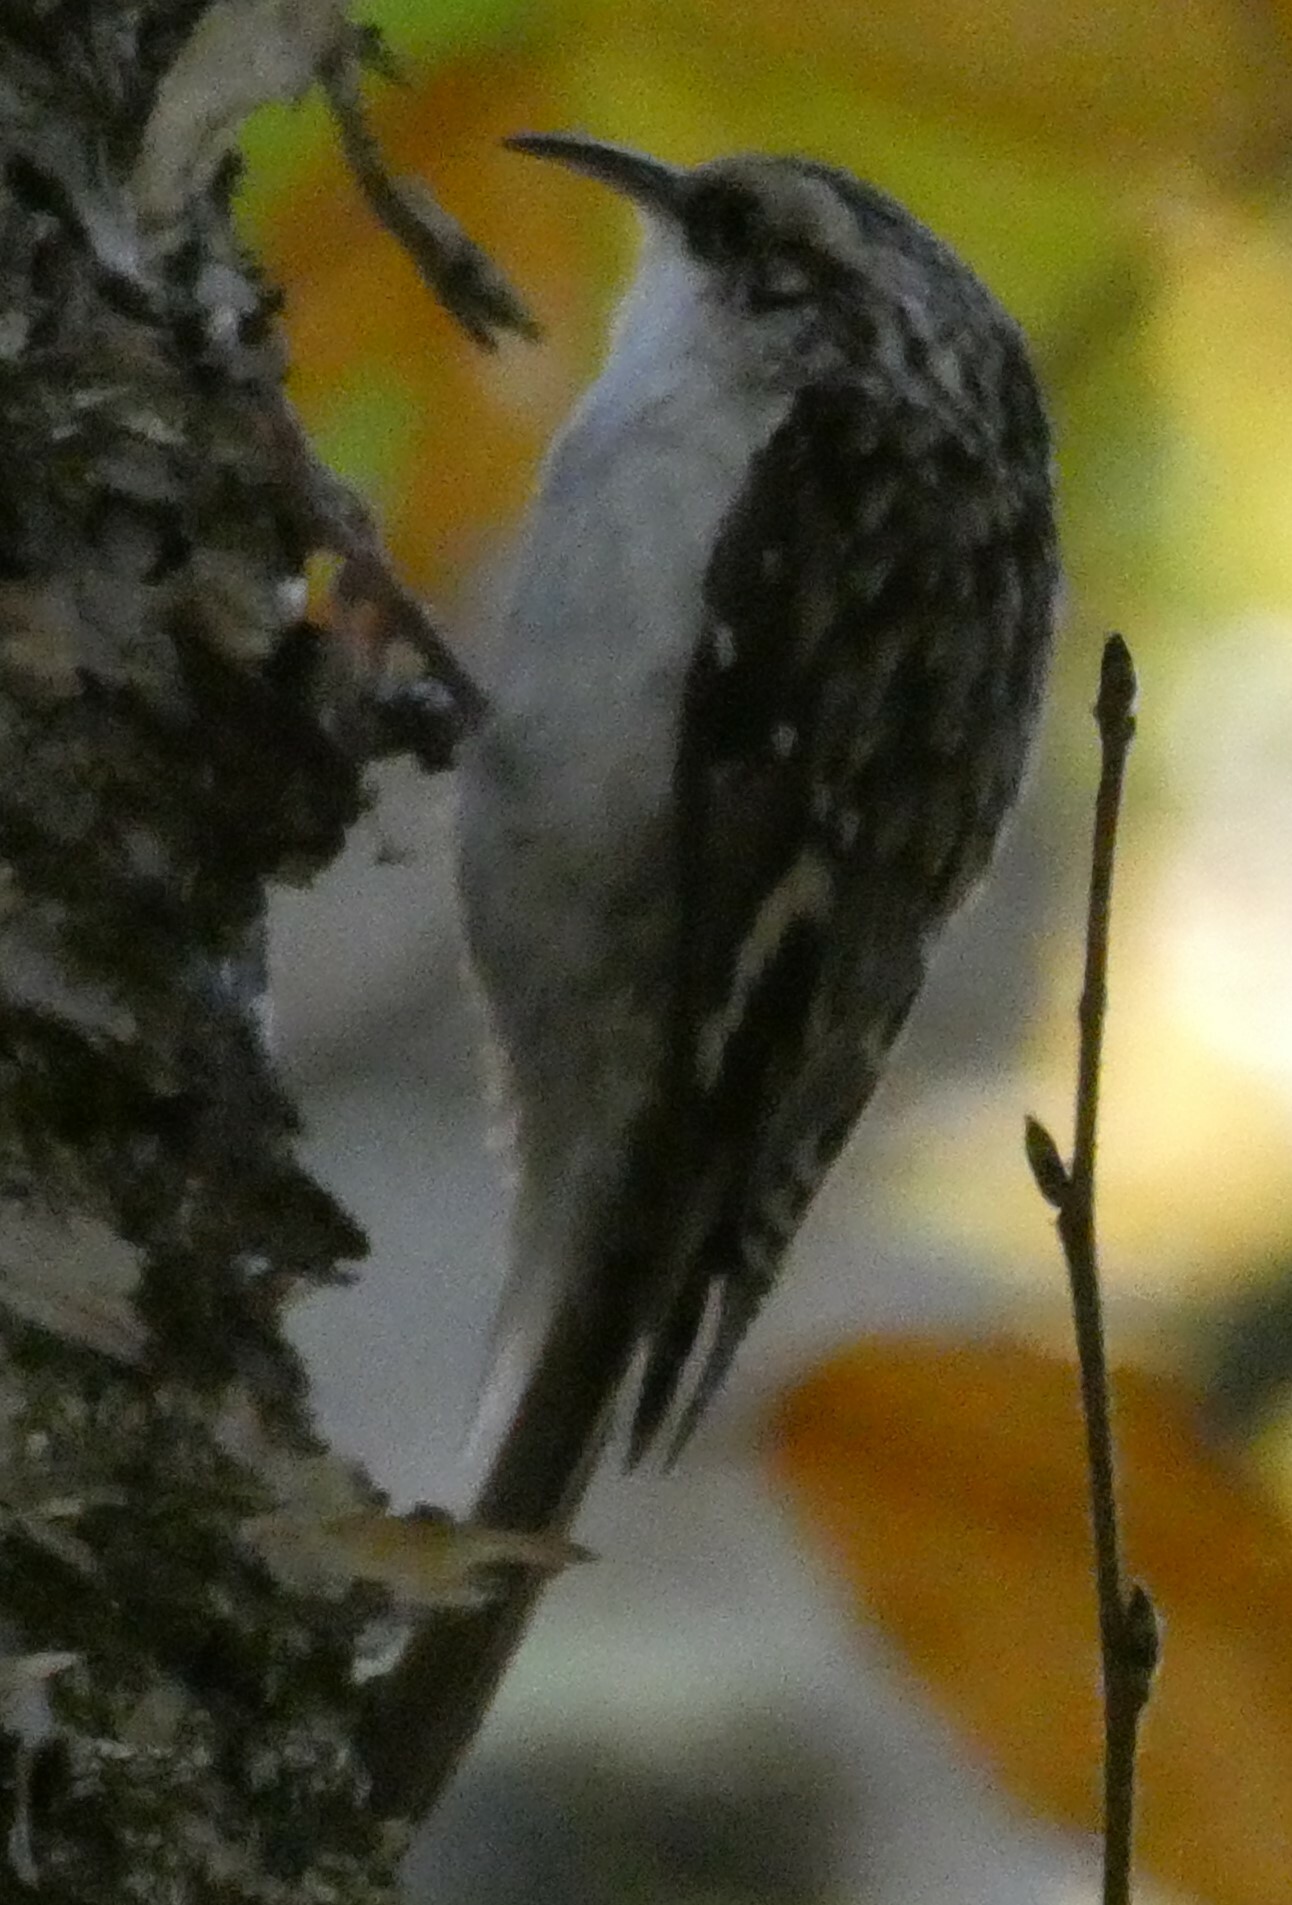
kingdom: Animalia
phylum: Chordata
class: Aves
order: Passeriformes
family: Certhiidae
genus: Certhia
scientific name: Certhia americana
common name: Brown creeper
